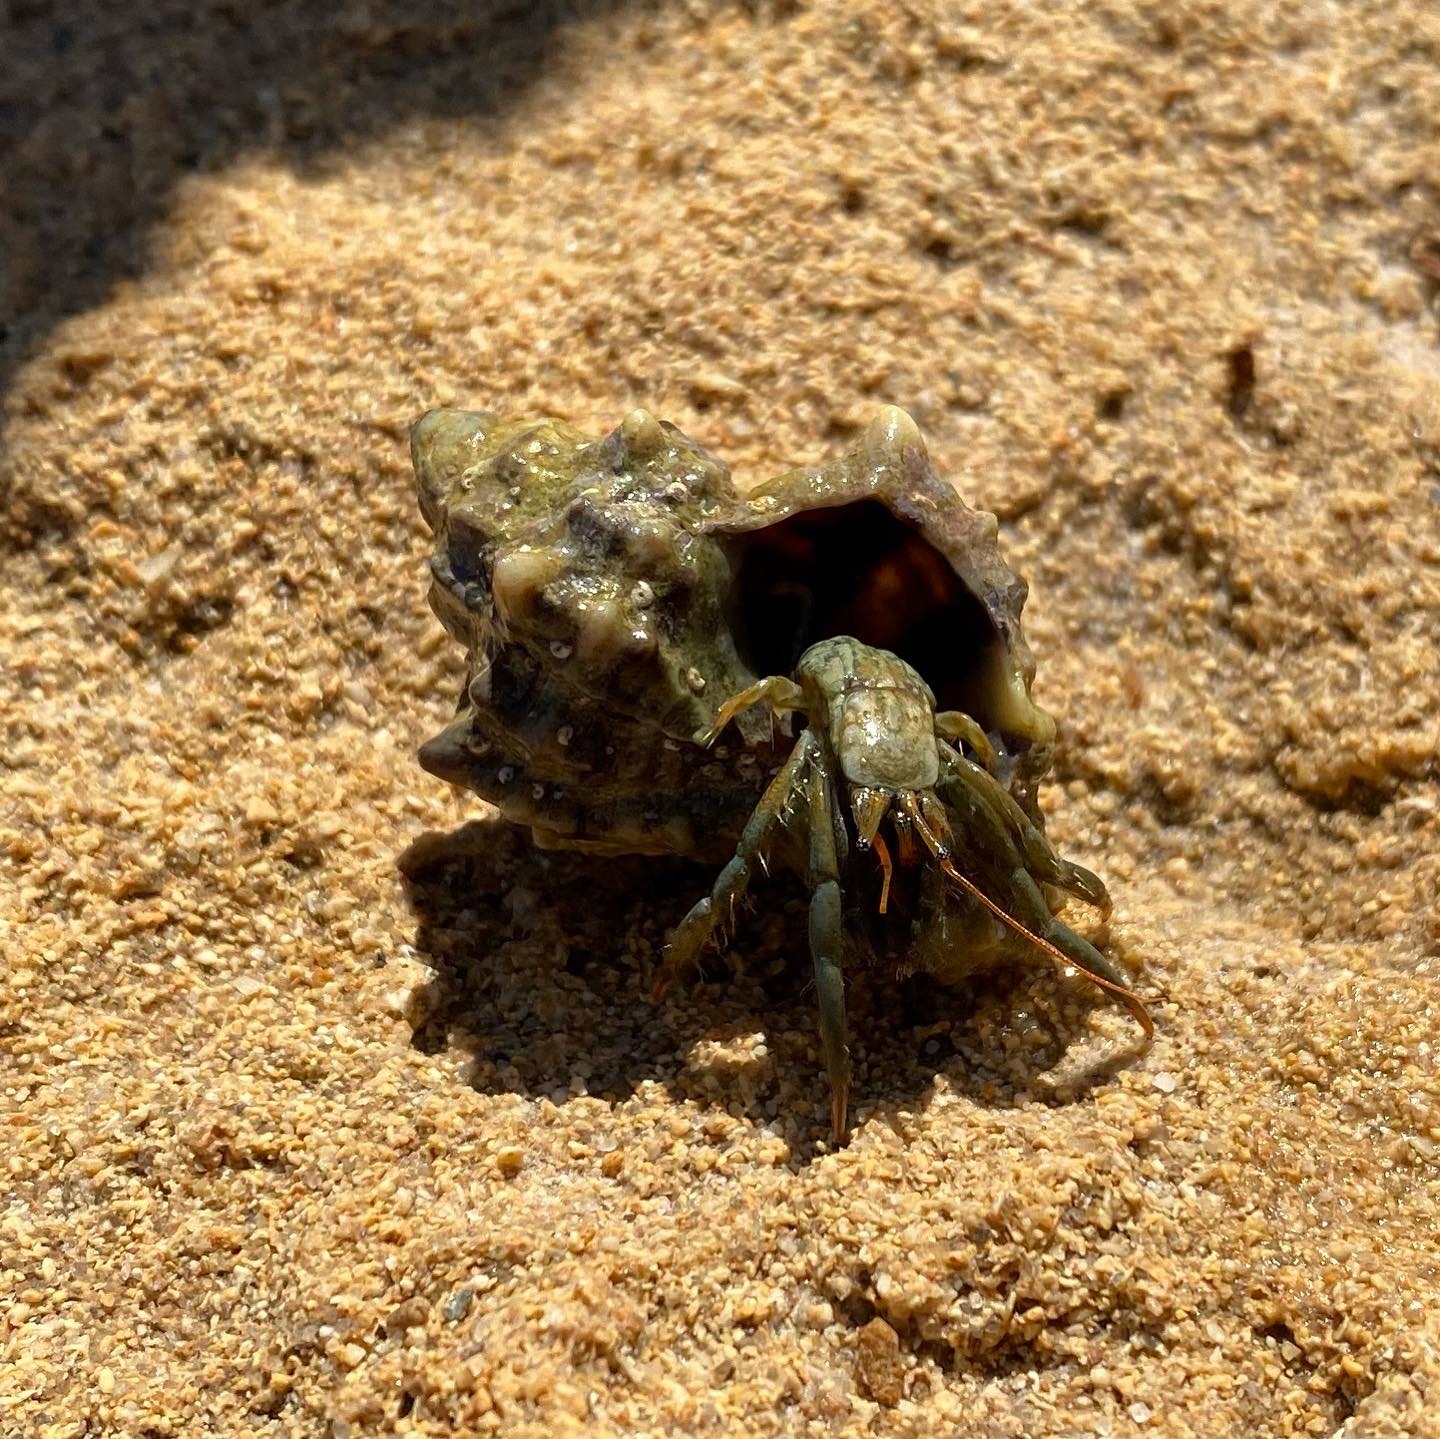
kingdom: Animalia
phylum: Arthropoda
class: Malacostraca
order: Decapoda
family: Diogenidae
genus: Clibanarius
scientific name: Clibanarius erythropus
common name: Hermit crab
